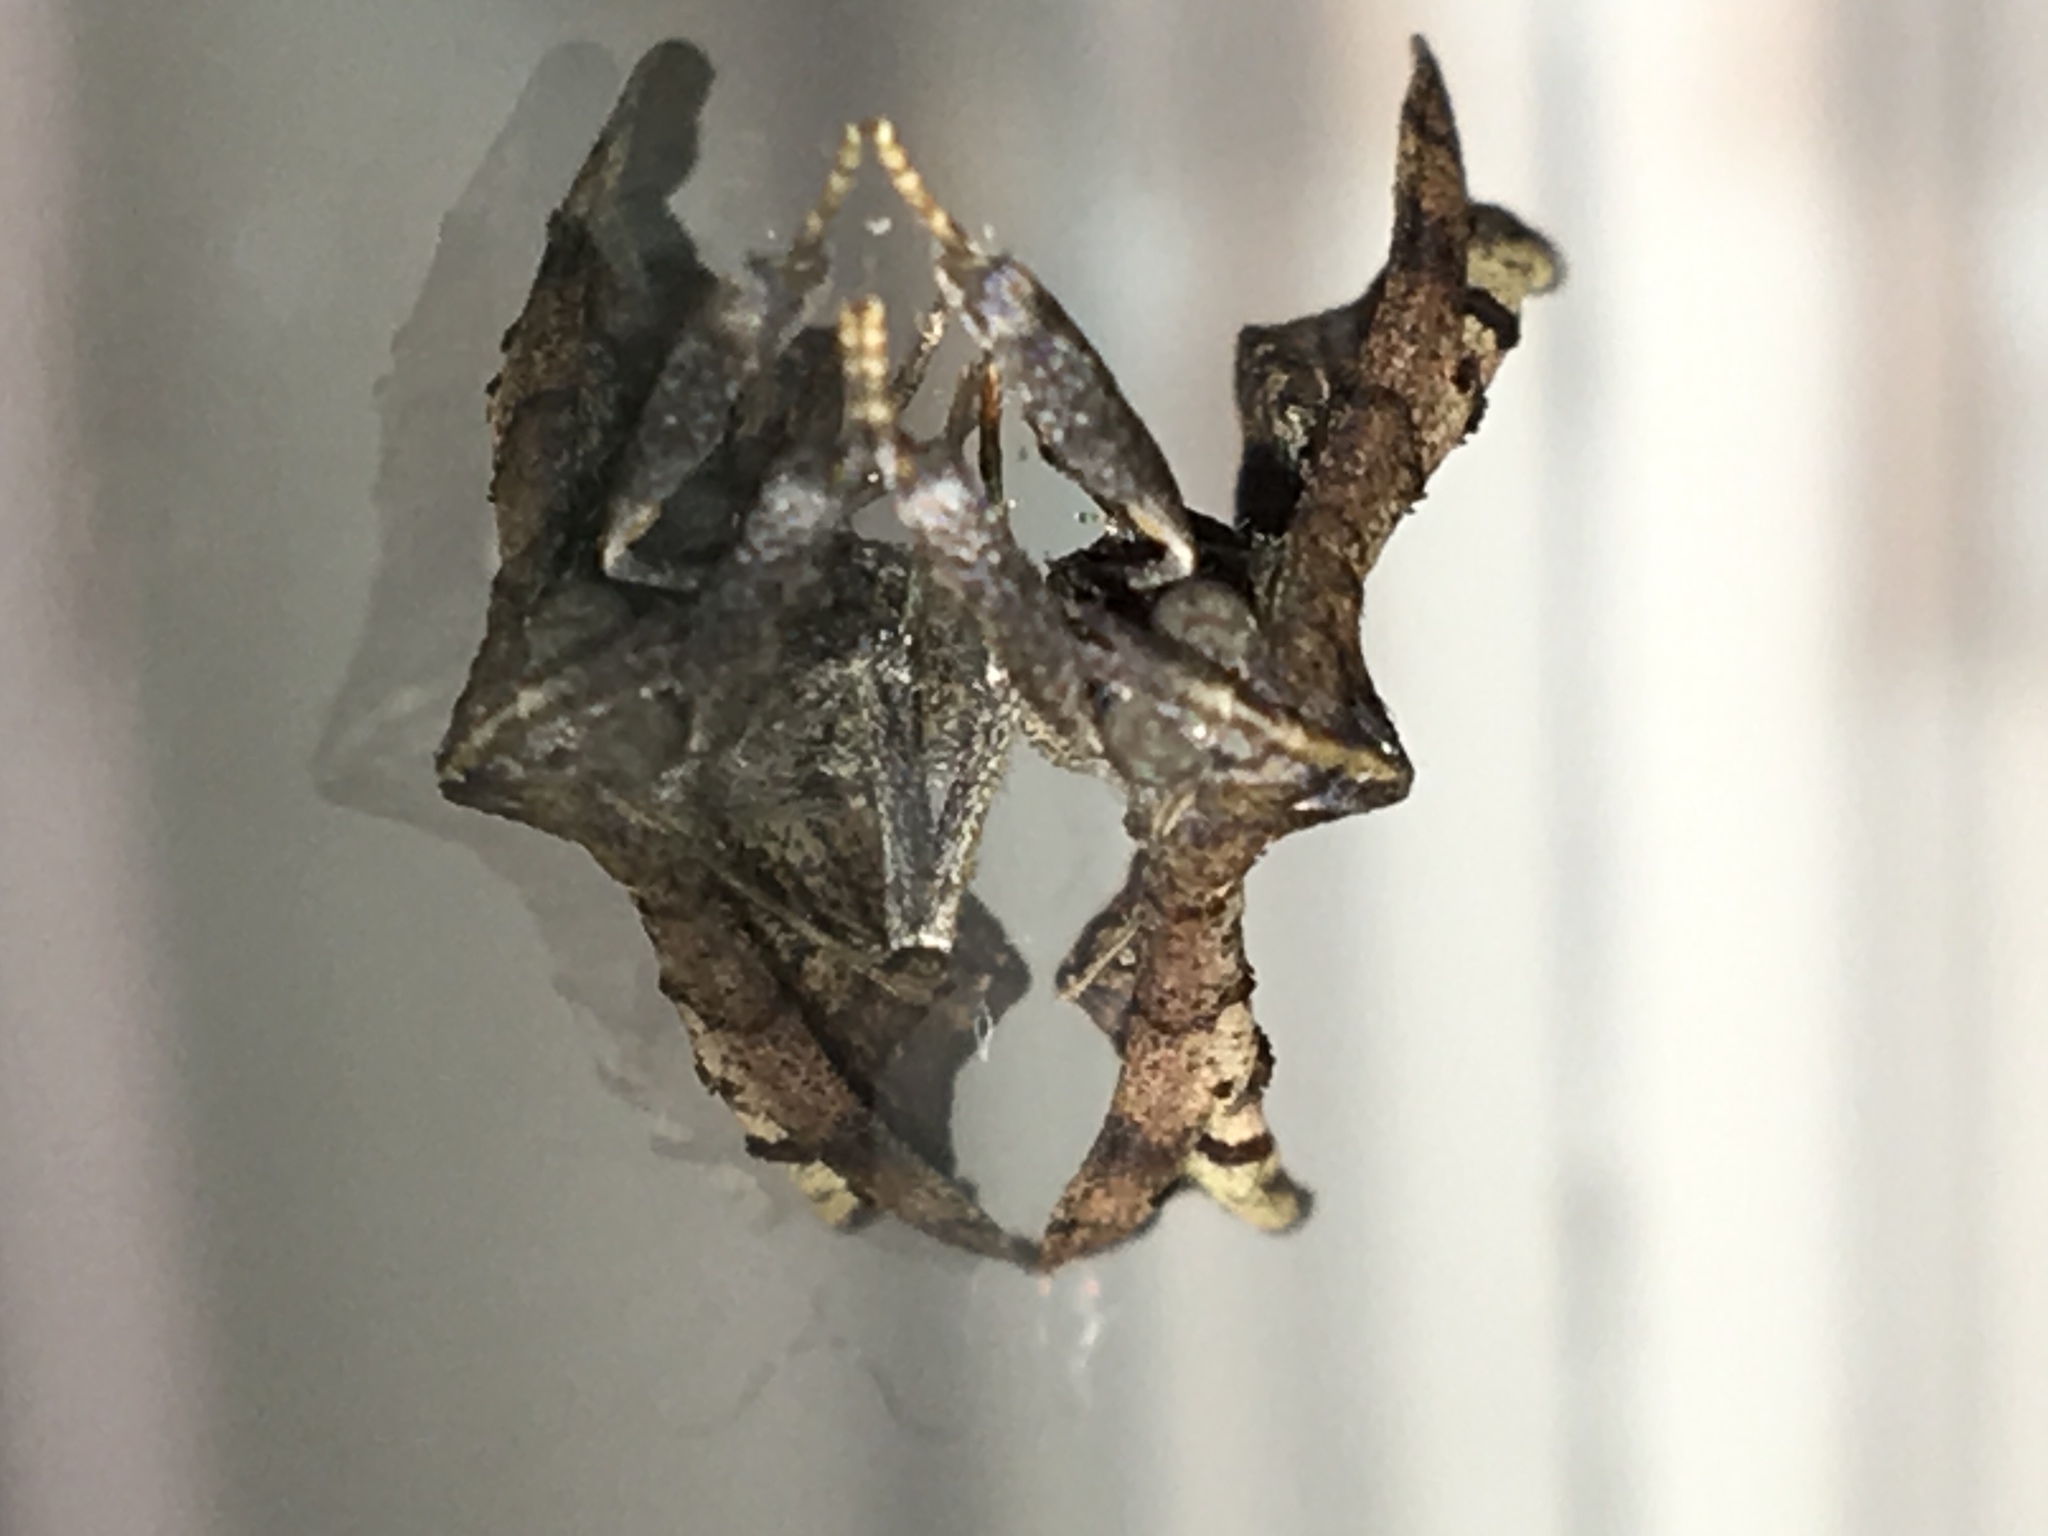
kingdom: Animalia
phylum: Arthropoda
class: Insecta
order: Lepidoptera
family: Erebidae
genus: Palthis
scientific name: Palthis angulalis
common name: Dark-spotted palthis moth
